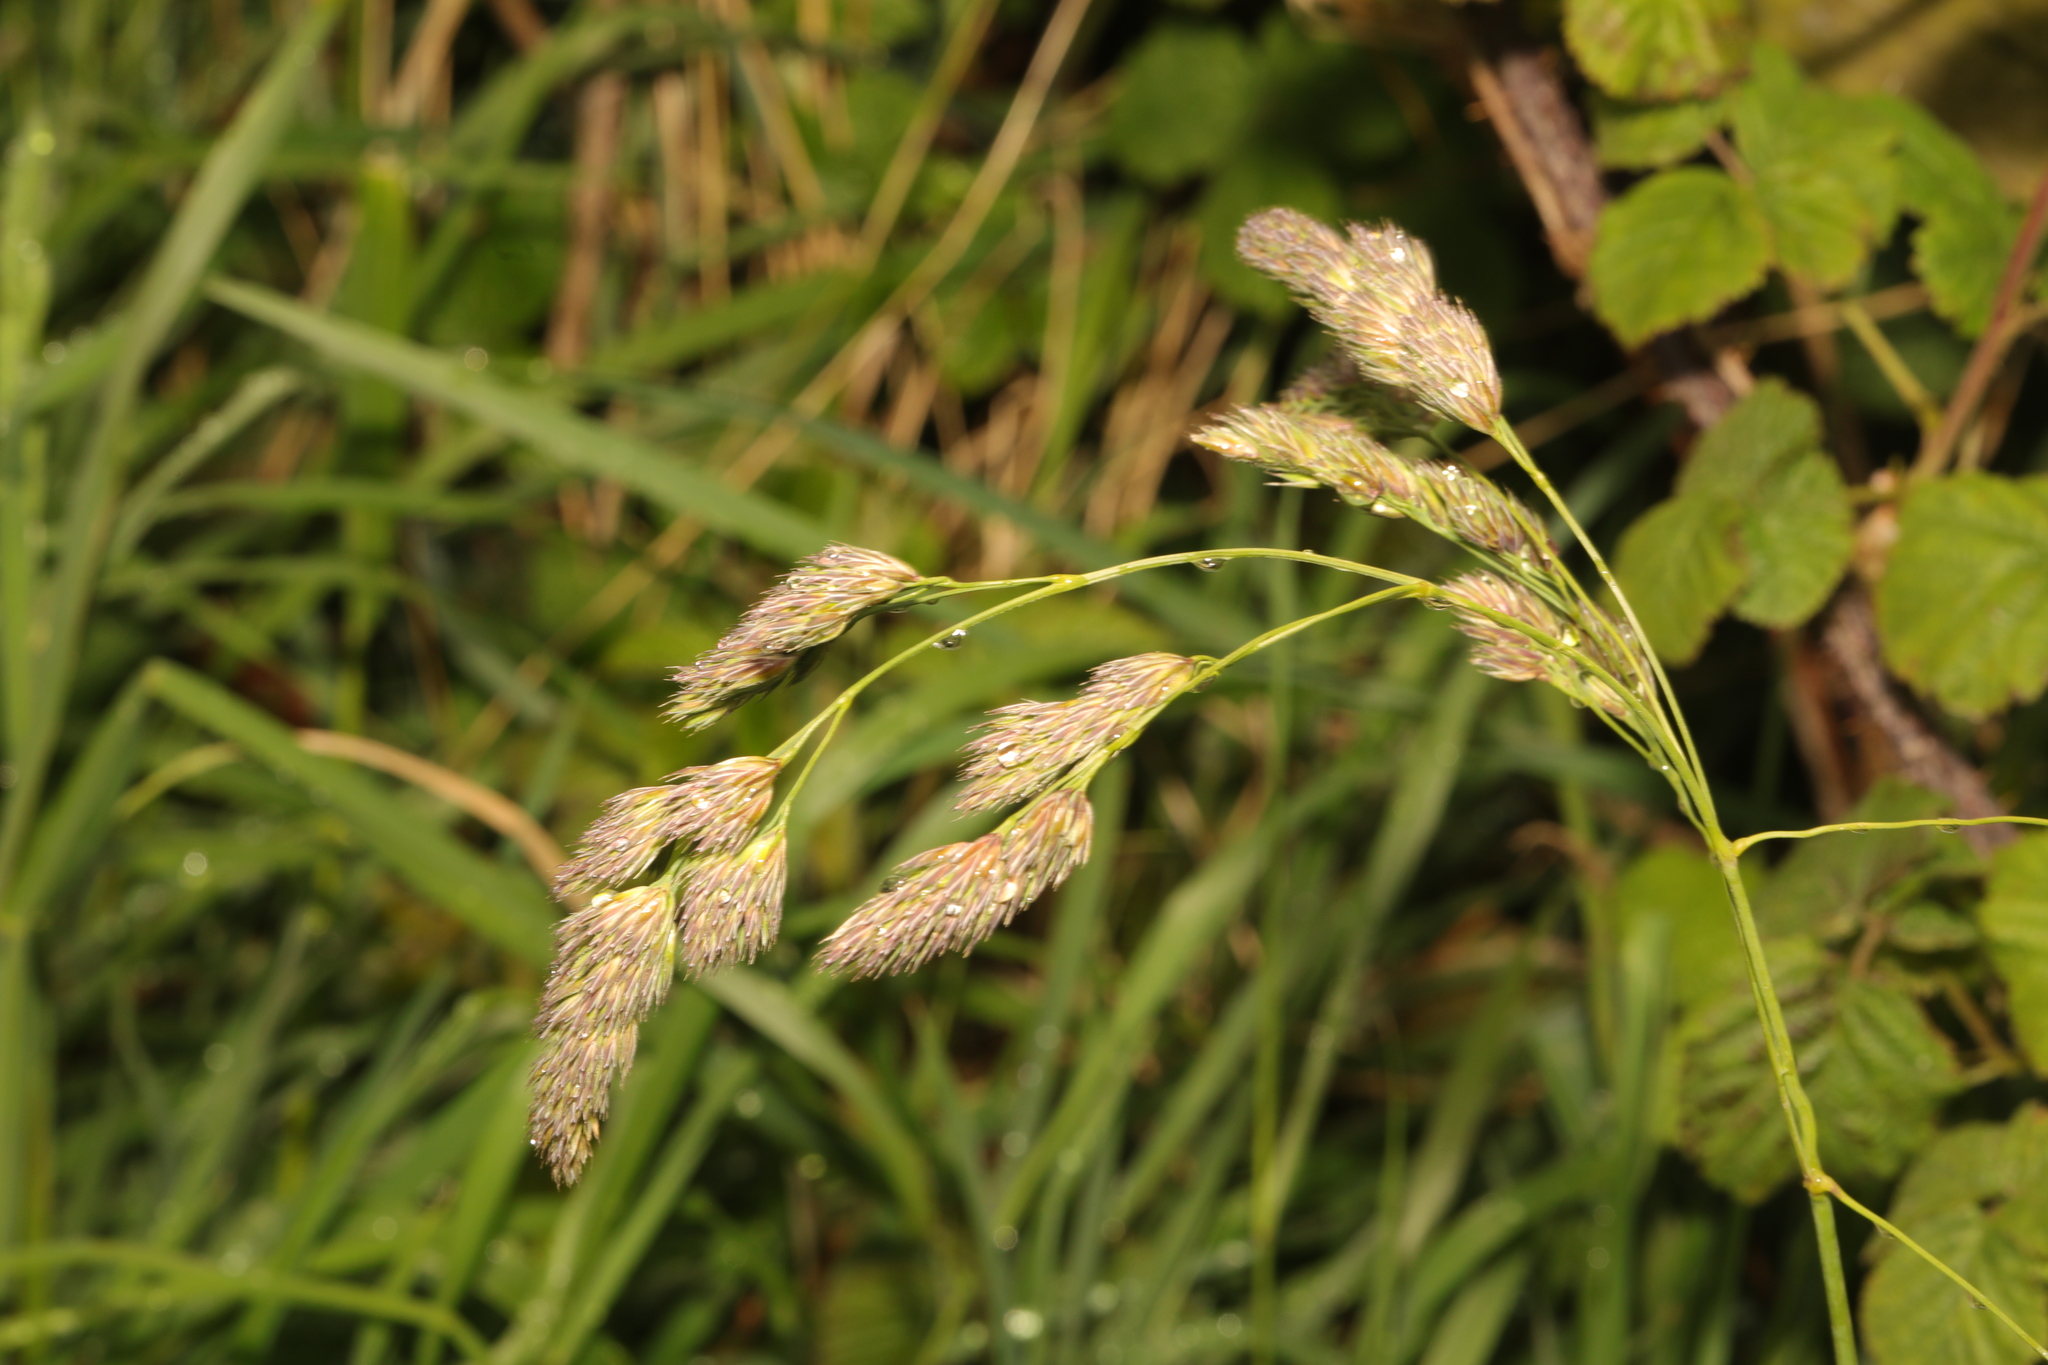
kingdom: Plantae
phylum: Tracheophyta
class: Liliopsida
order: Poales
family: Poaceae
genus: Dactylis
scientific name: Dactylis glomerata
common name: Orchardgrass
